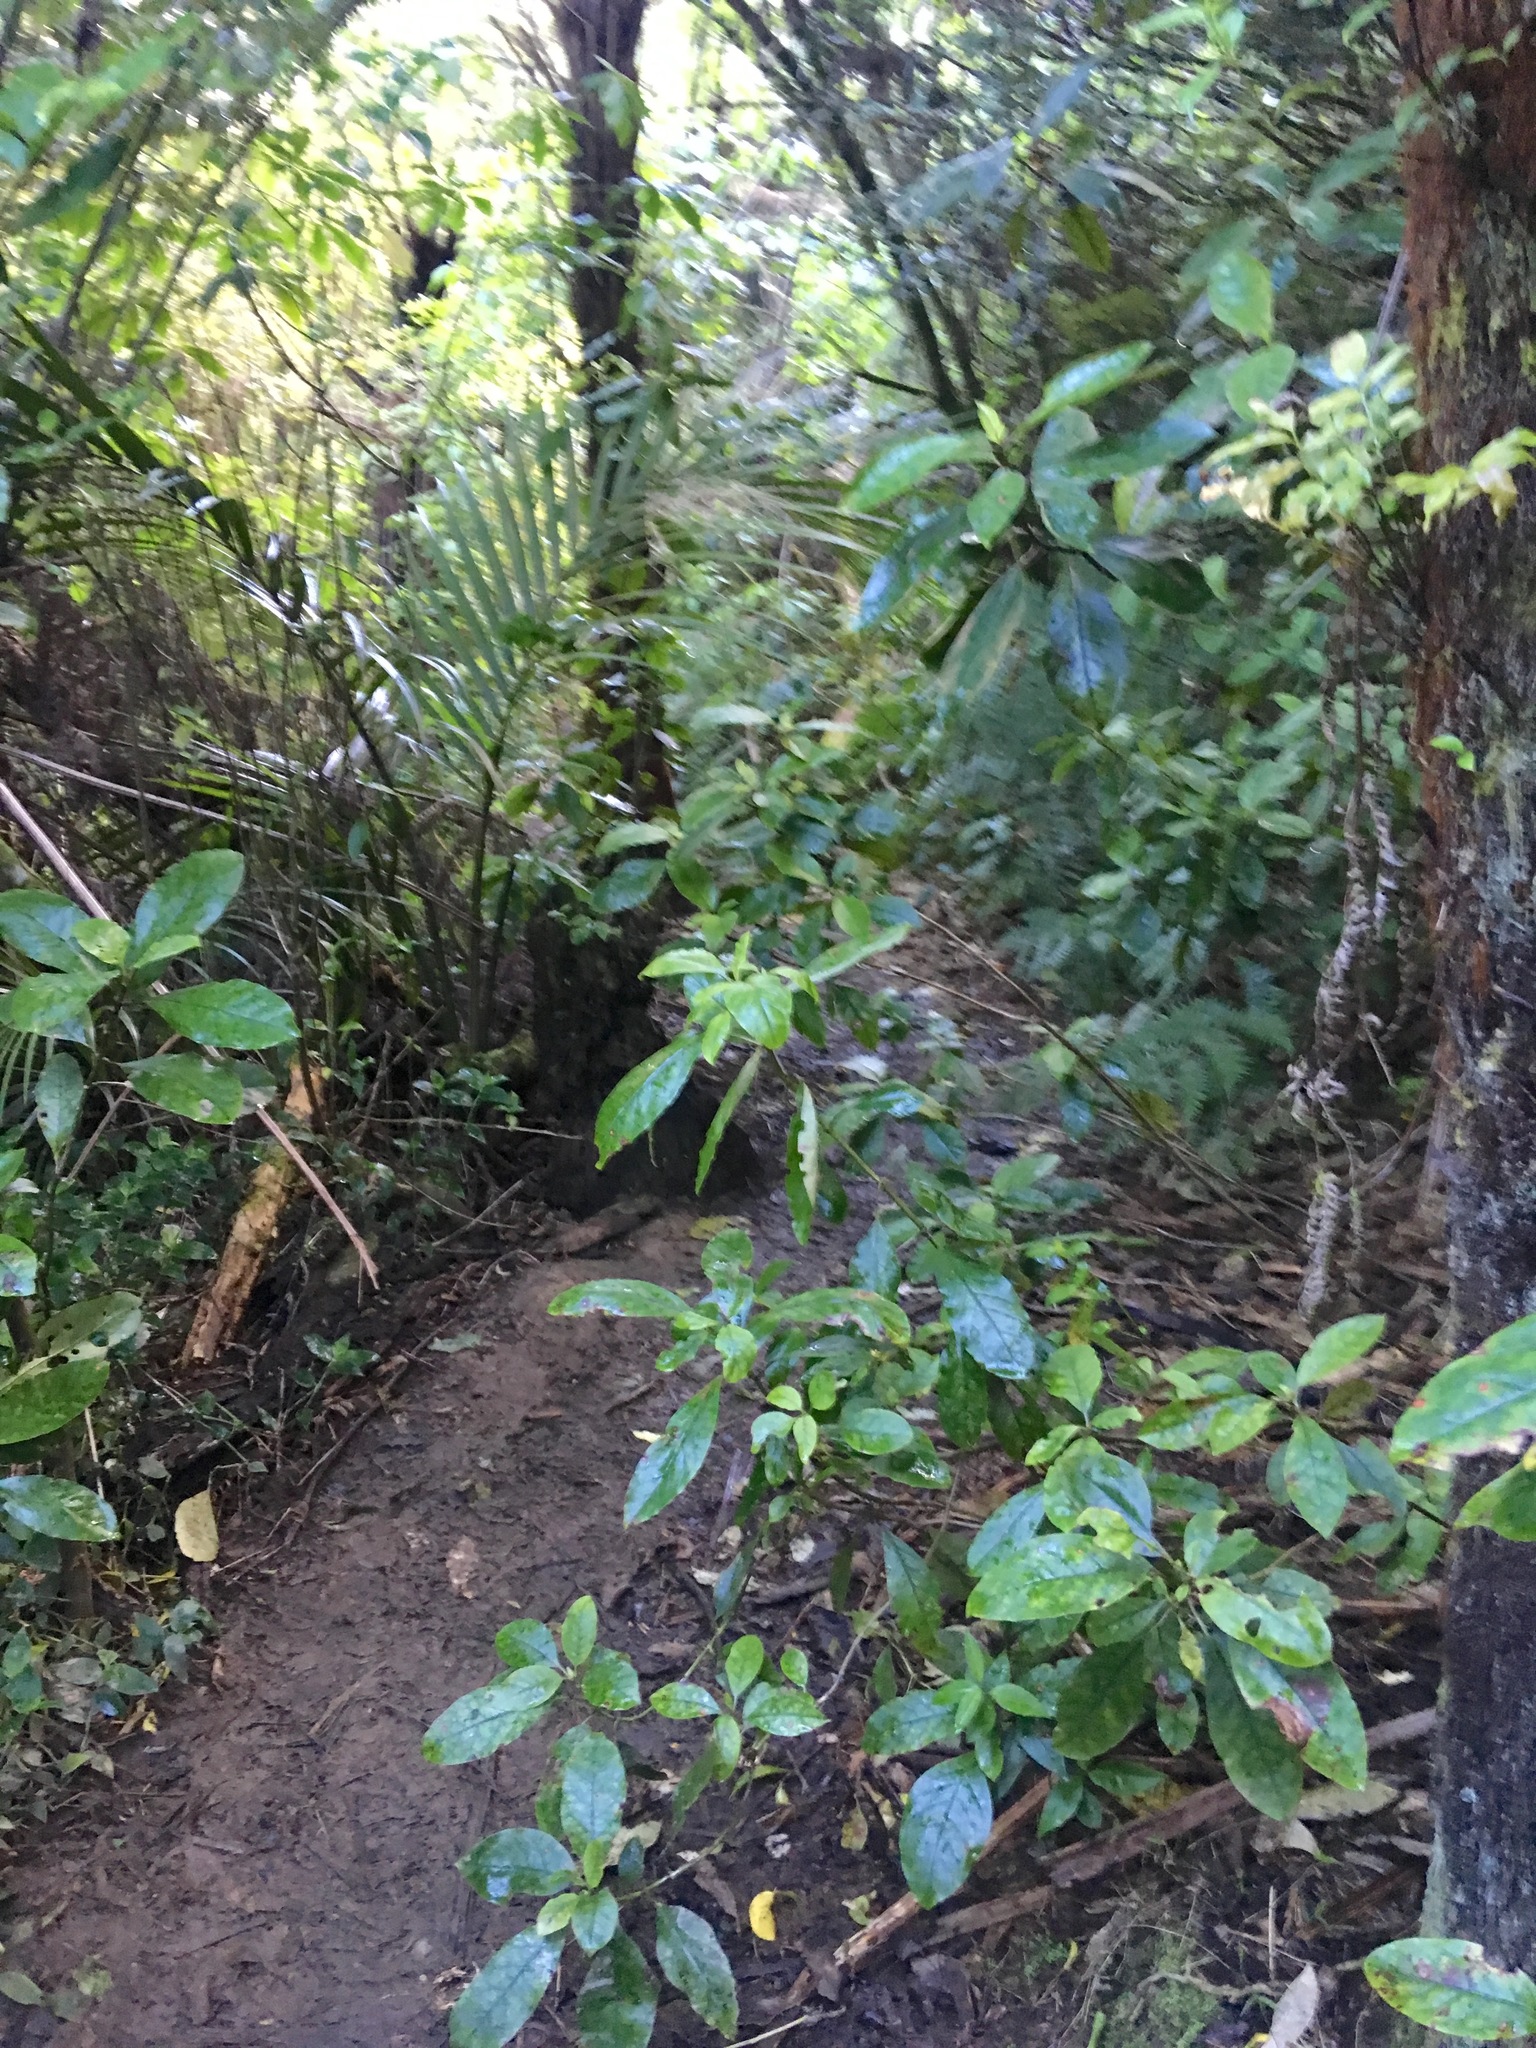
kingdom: Plantae
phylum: Tracheophyta
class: Magnoliopsida
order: Gentianales
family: Rubiaceae
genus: Coprosma
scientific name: Coprosma autumnalis
